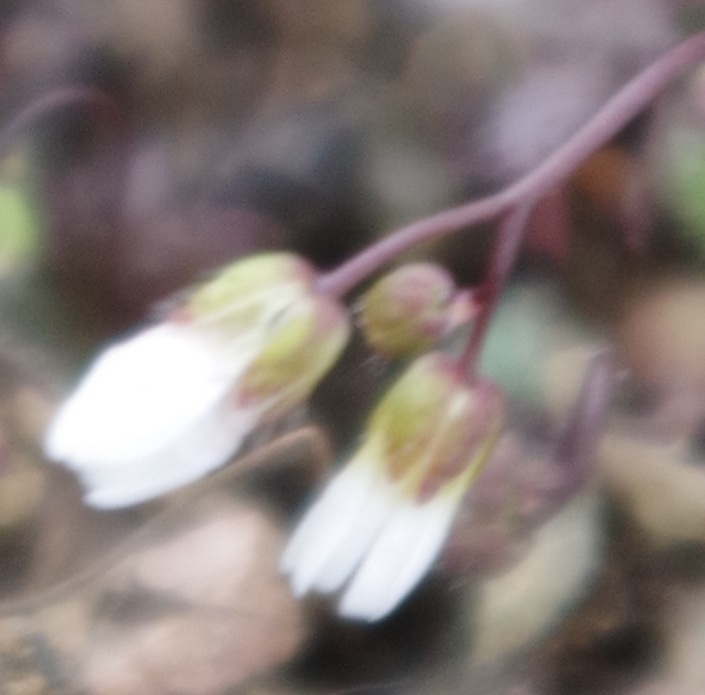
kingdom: Plantae
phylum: Tracheophyta
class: Magnoliopsida
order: Brassicales
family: Brassicaceae
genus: Draba
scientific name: Draba verna
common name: Spring draba
